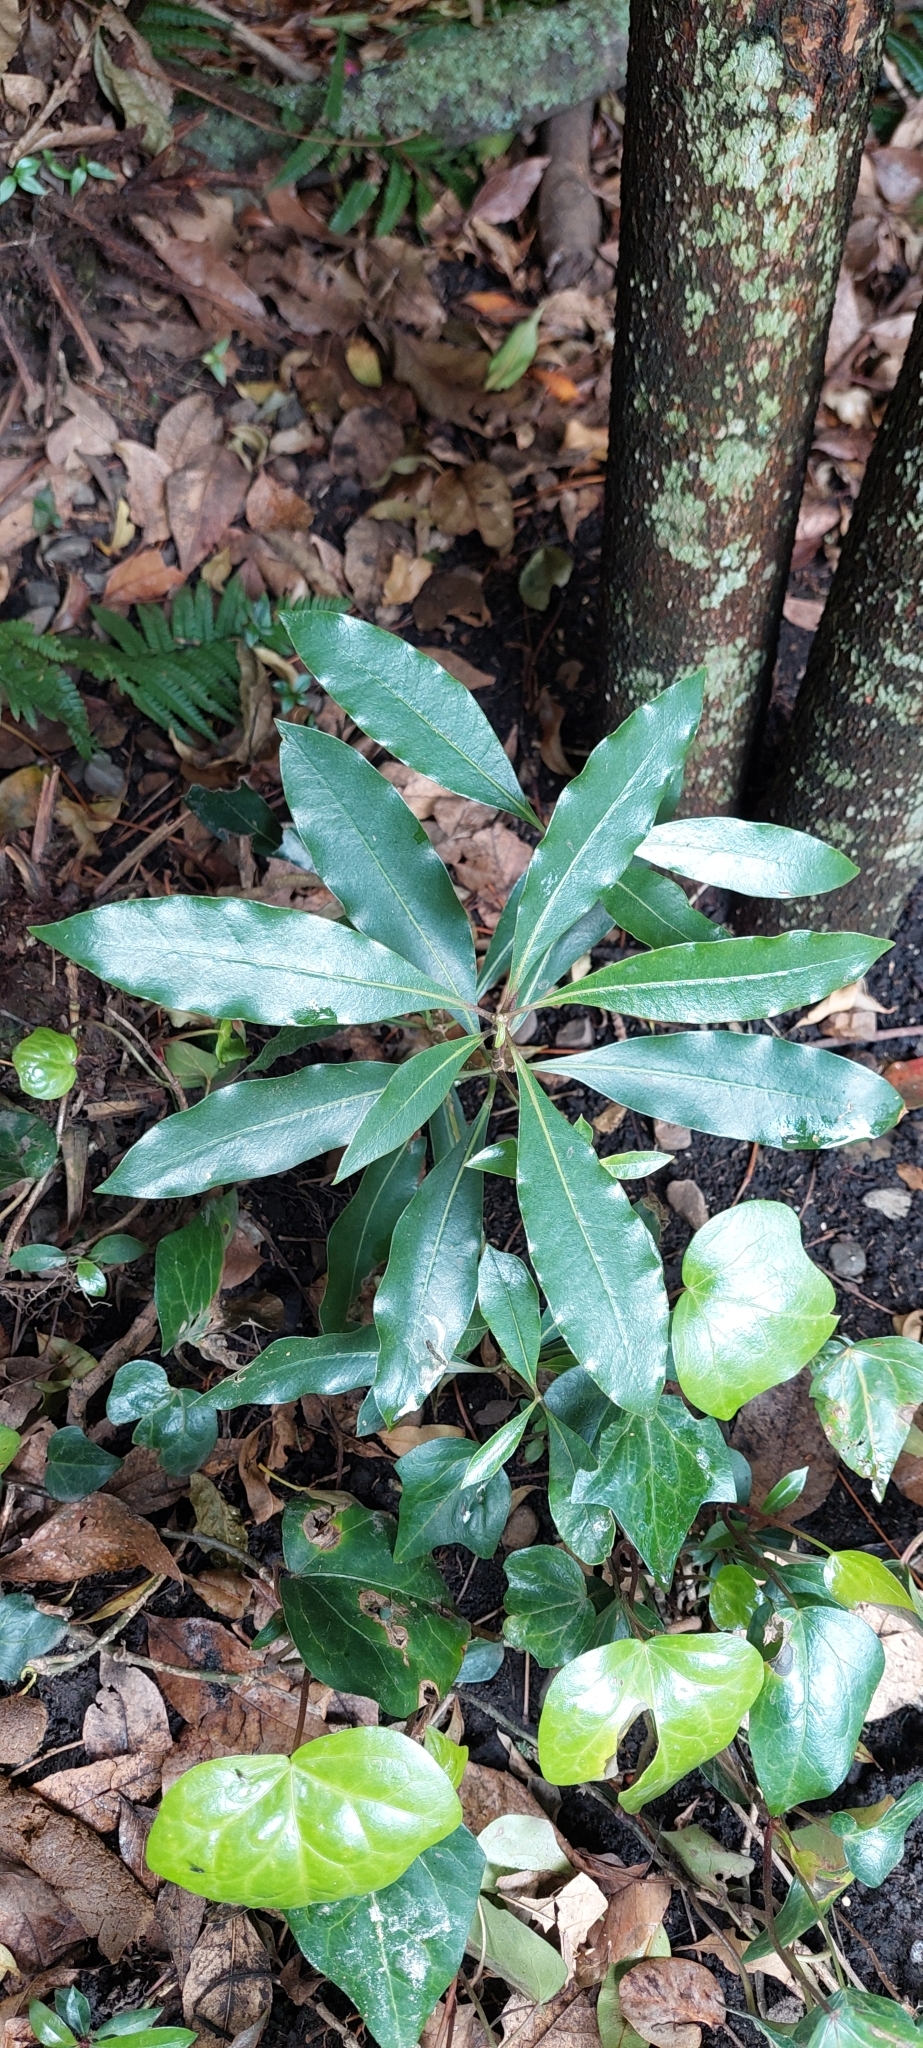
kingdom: Plantae
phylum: Tracheophyta
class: Magnoliopsida
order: Apiales
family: Pittosporaceae
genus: Pittosporum
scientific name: Pittosporum undulatum
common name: Australian cheesewood
